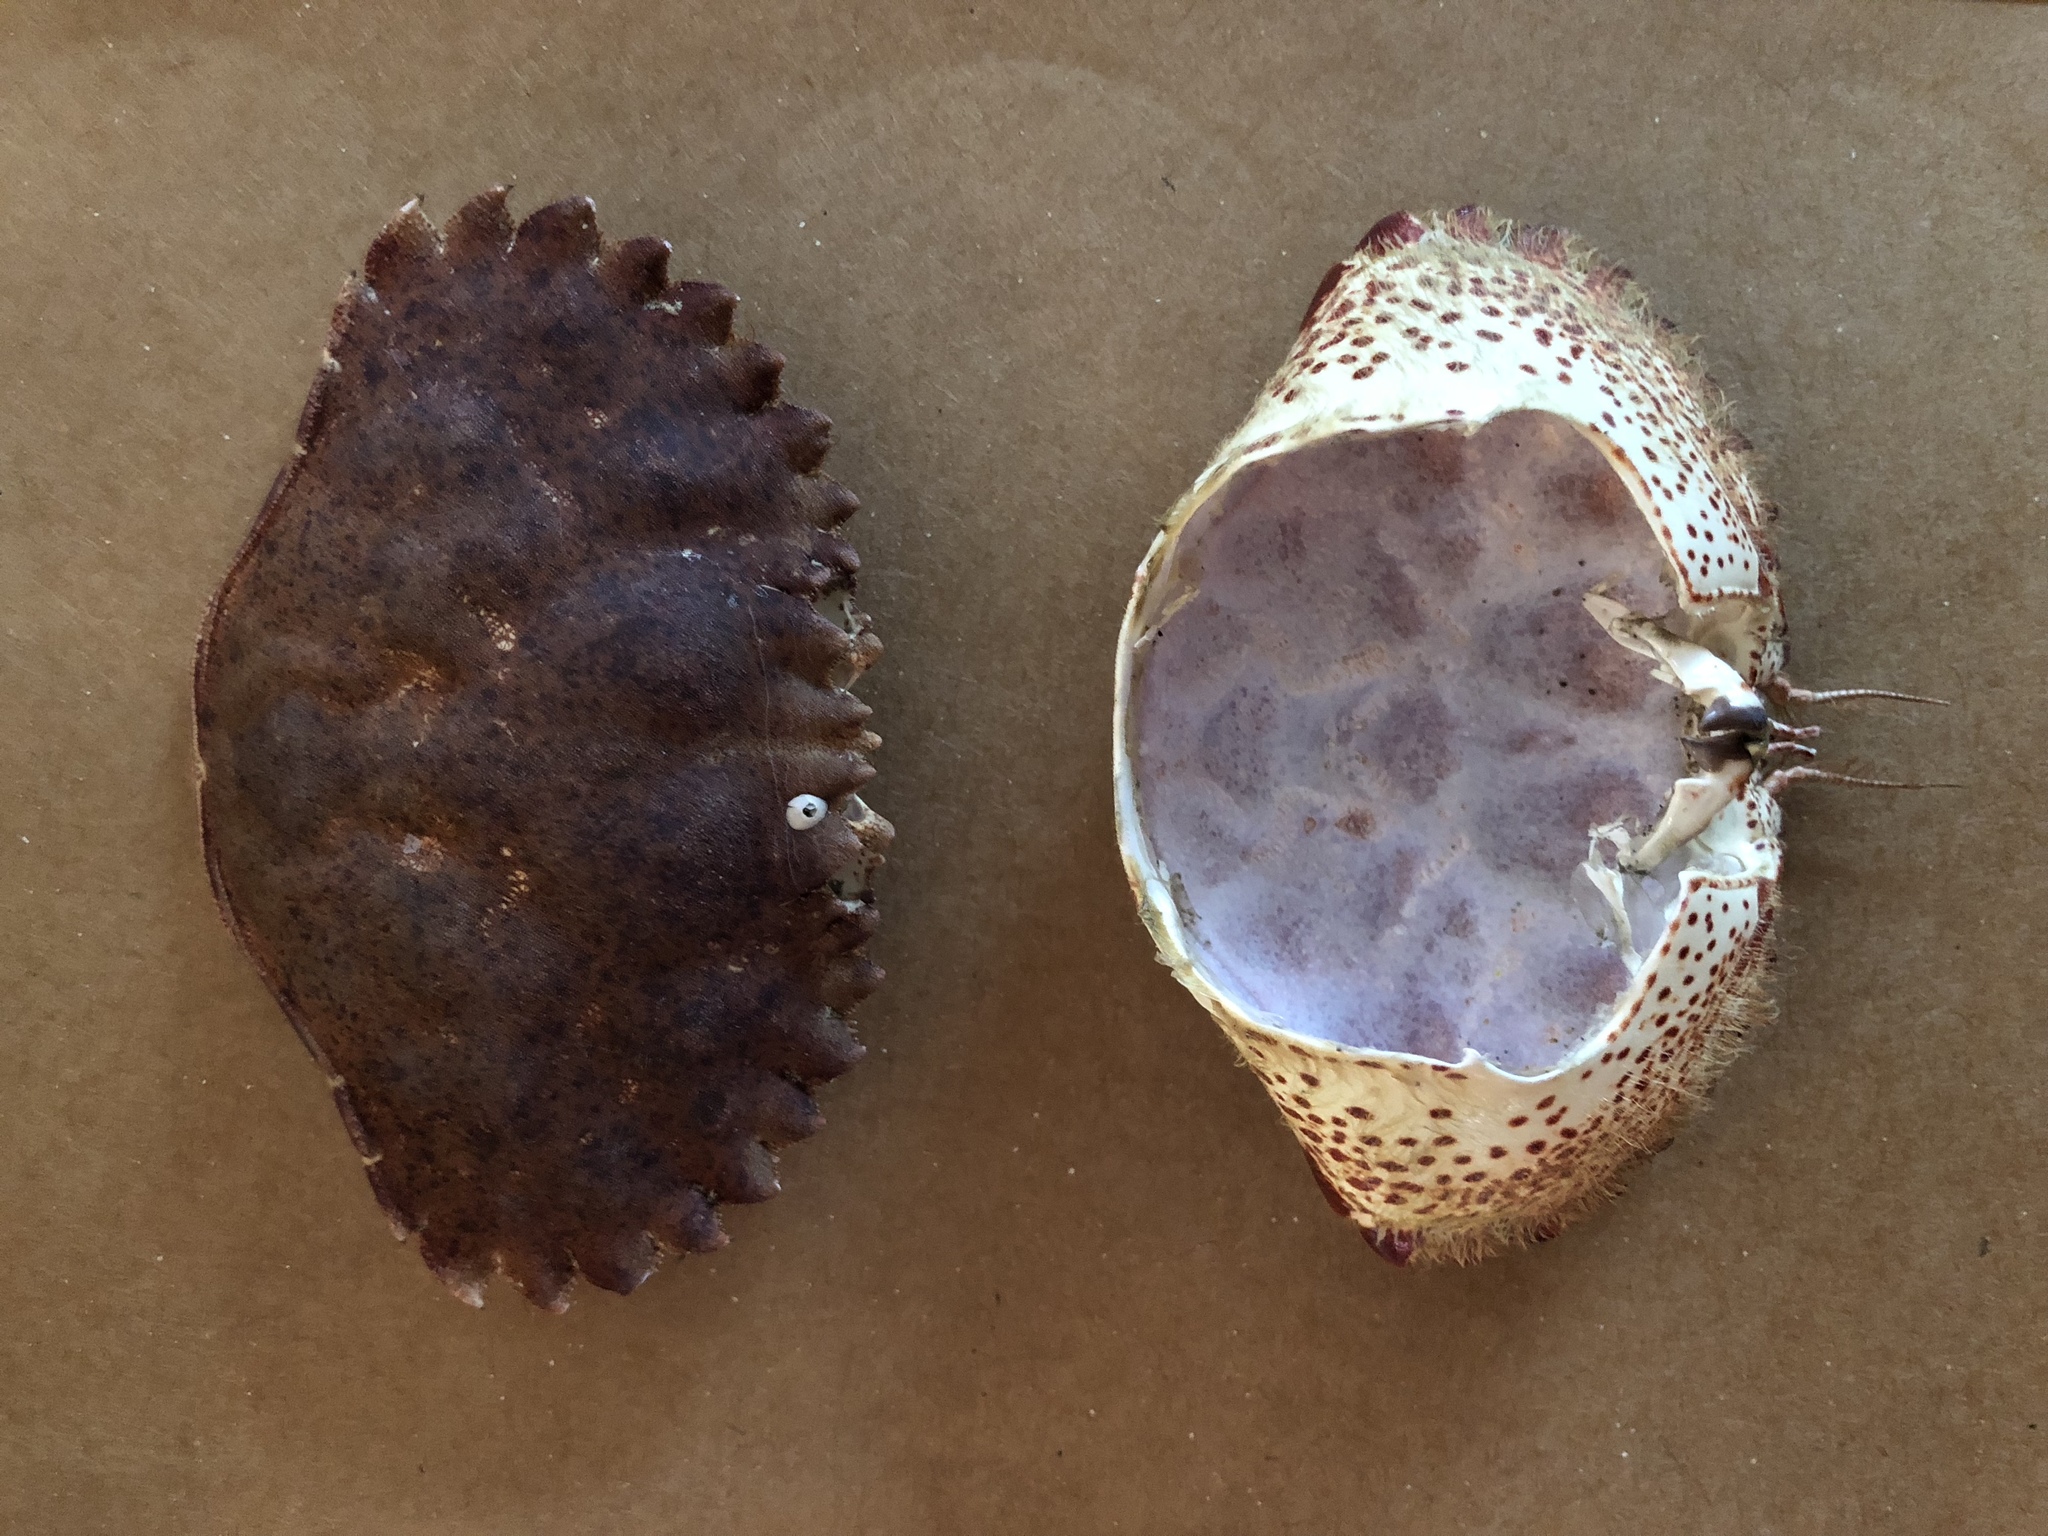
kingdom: Animalia
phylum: Arthropoda
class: Malacostraca
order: Decapoda
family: Cancridae
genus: Romaleon
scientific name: Romaleon antennarium
